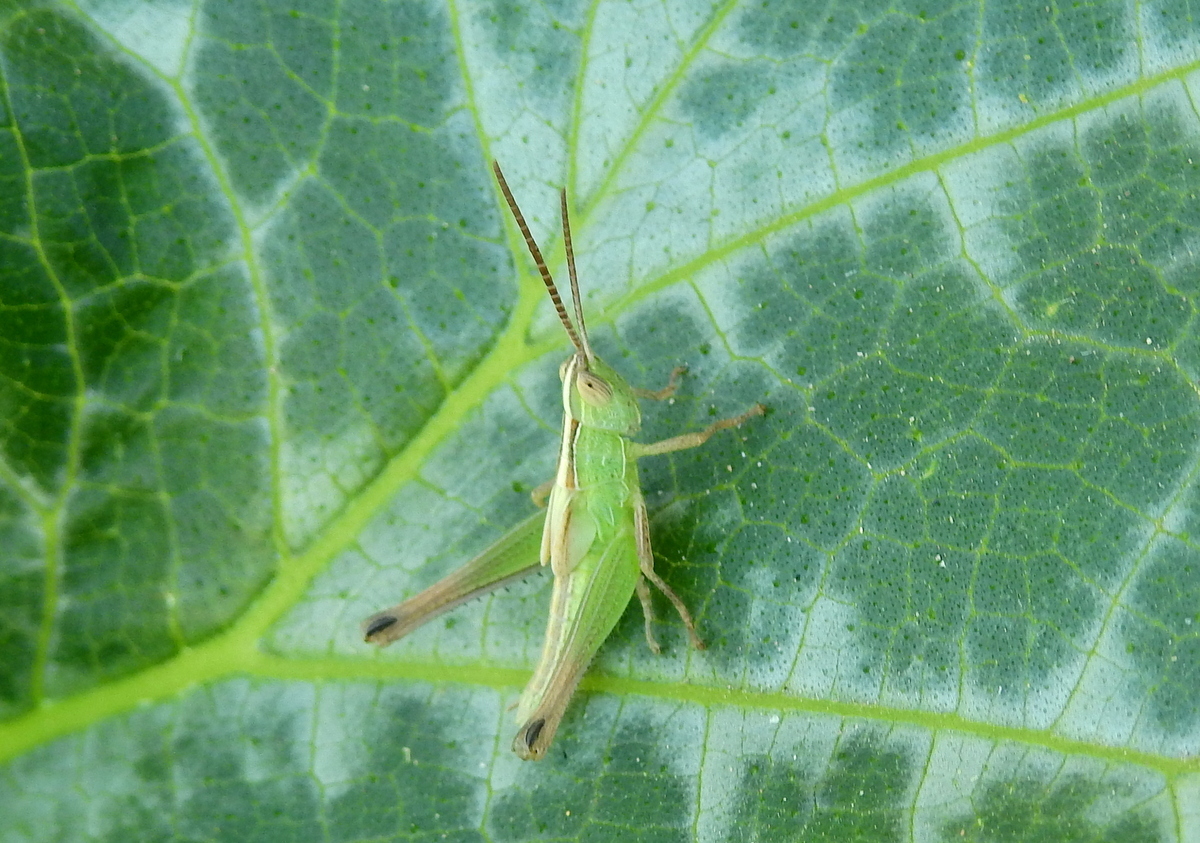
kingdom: Animalia
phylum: Arthropoda
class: Insecta
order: Orthoptera
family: Acrididae
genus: Staurorhectus
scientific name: Staurorhectus longicornis
